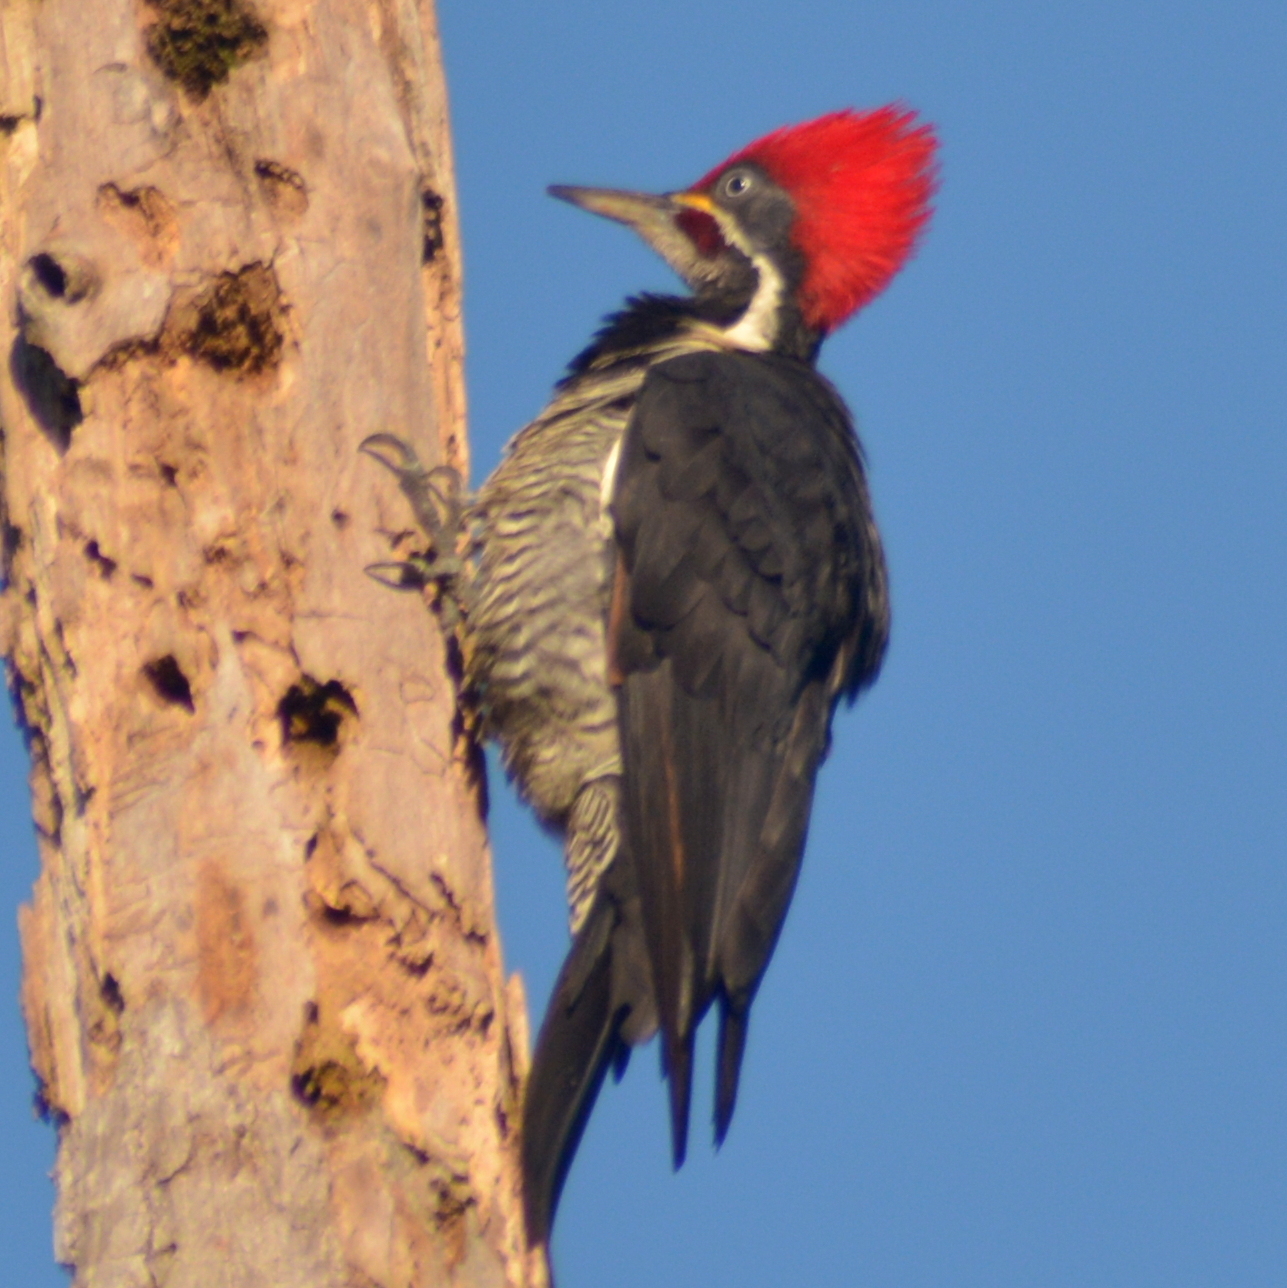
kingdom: Animalia
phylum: Chordata
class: Aves
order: Piciformes
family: Picidae
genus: Dryocopus
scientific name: Dryocopus lineatus
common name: Lineated woodpecker
